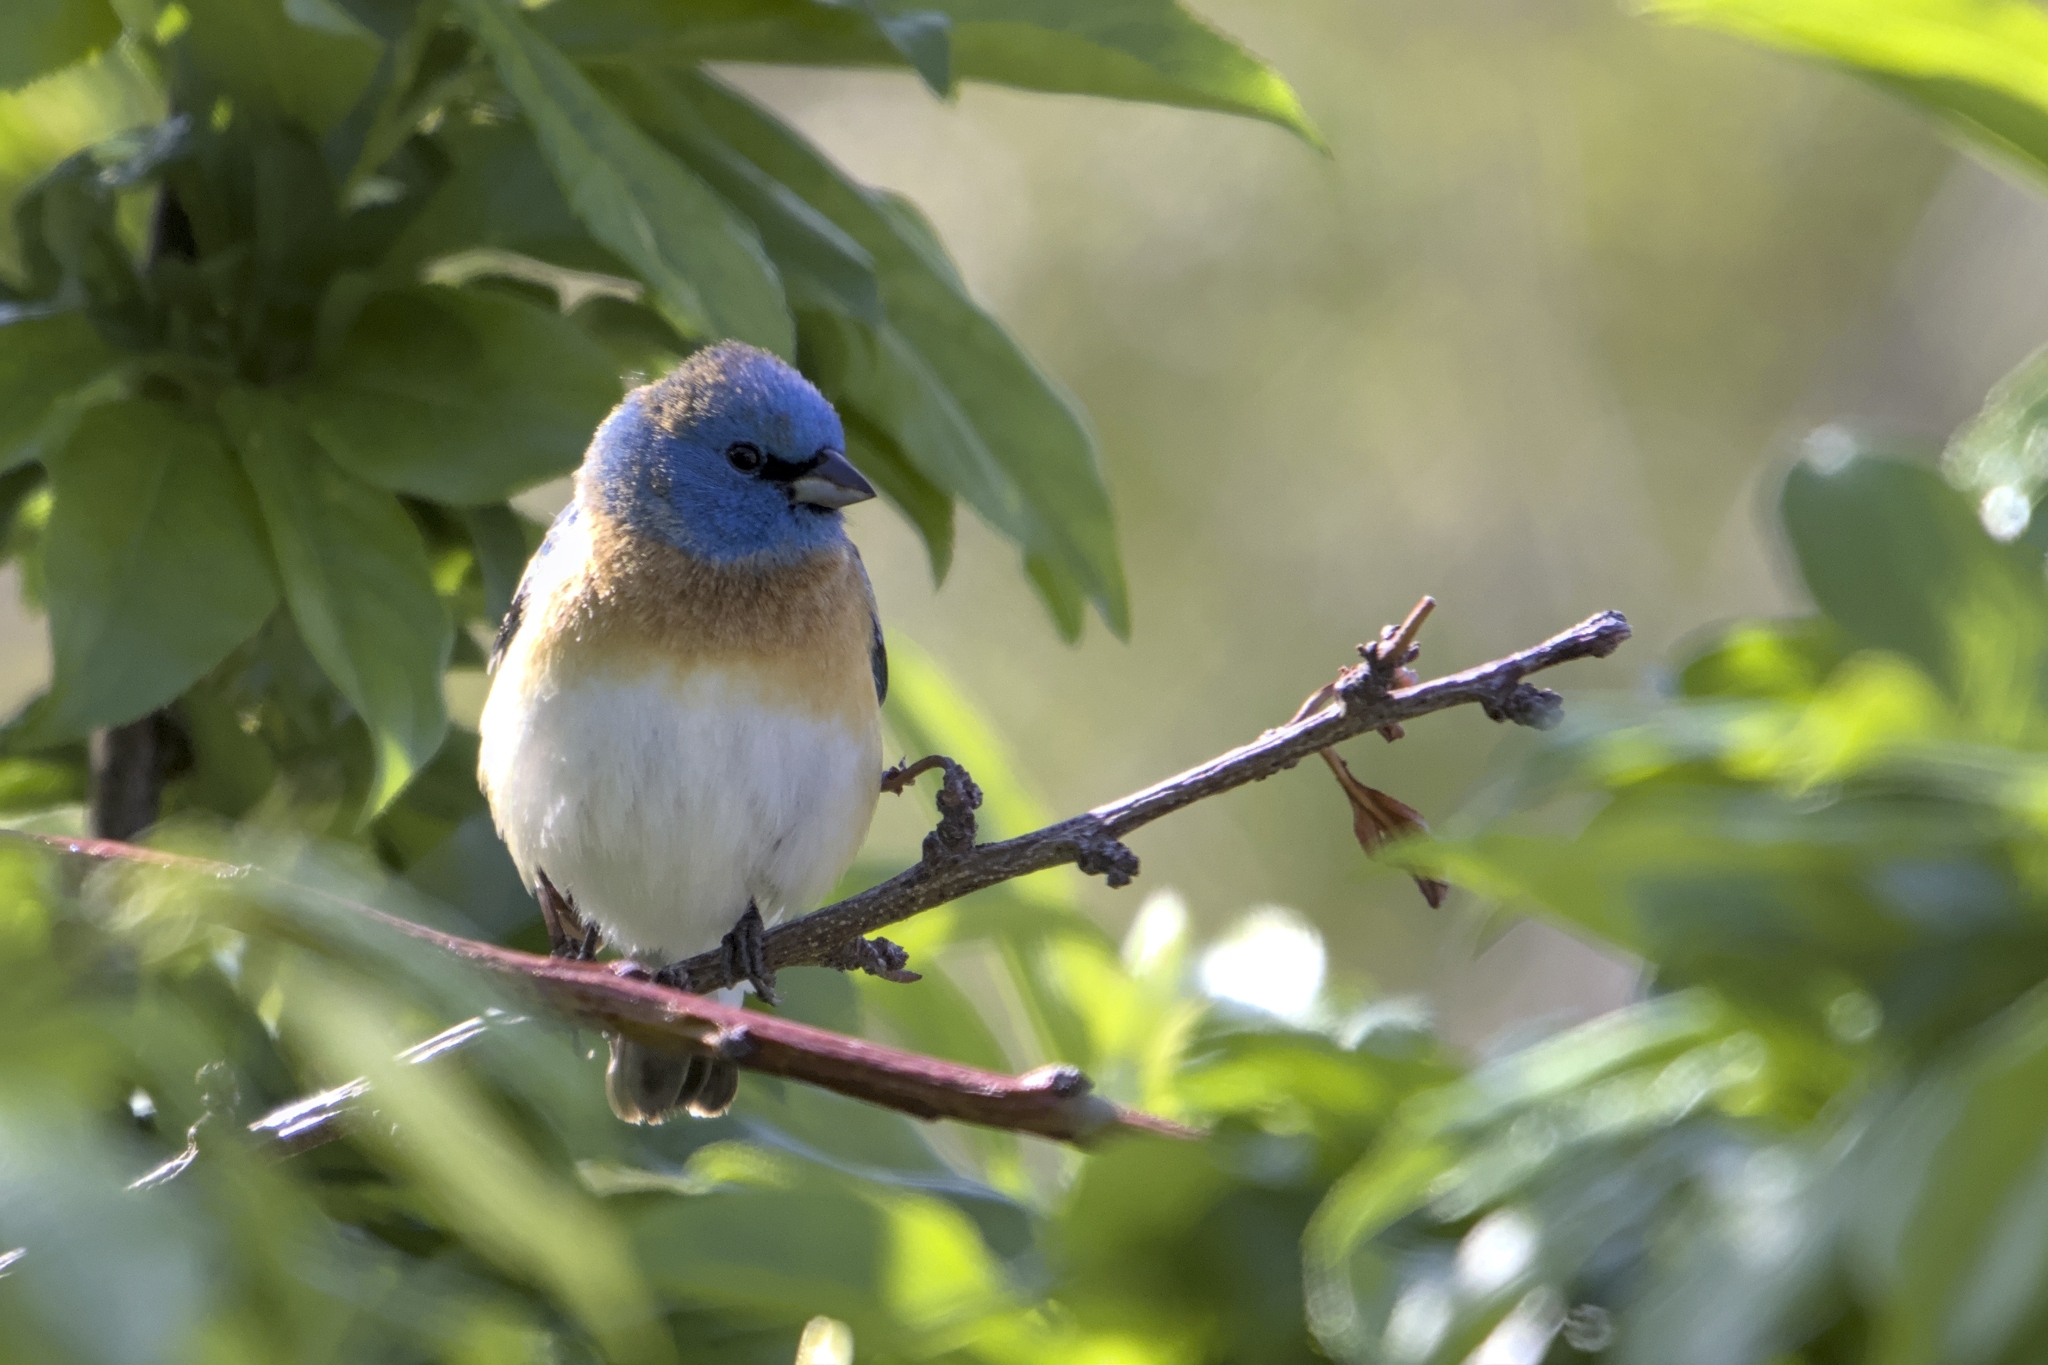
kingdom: Animalia
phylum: Chordata
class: Aves
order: Passeriformes
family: Cardinalidae
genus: Passerina
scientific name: Passerina amoena
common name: Lazuli bunting
